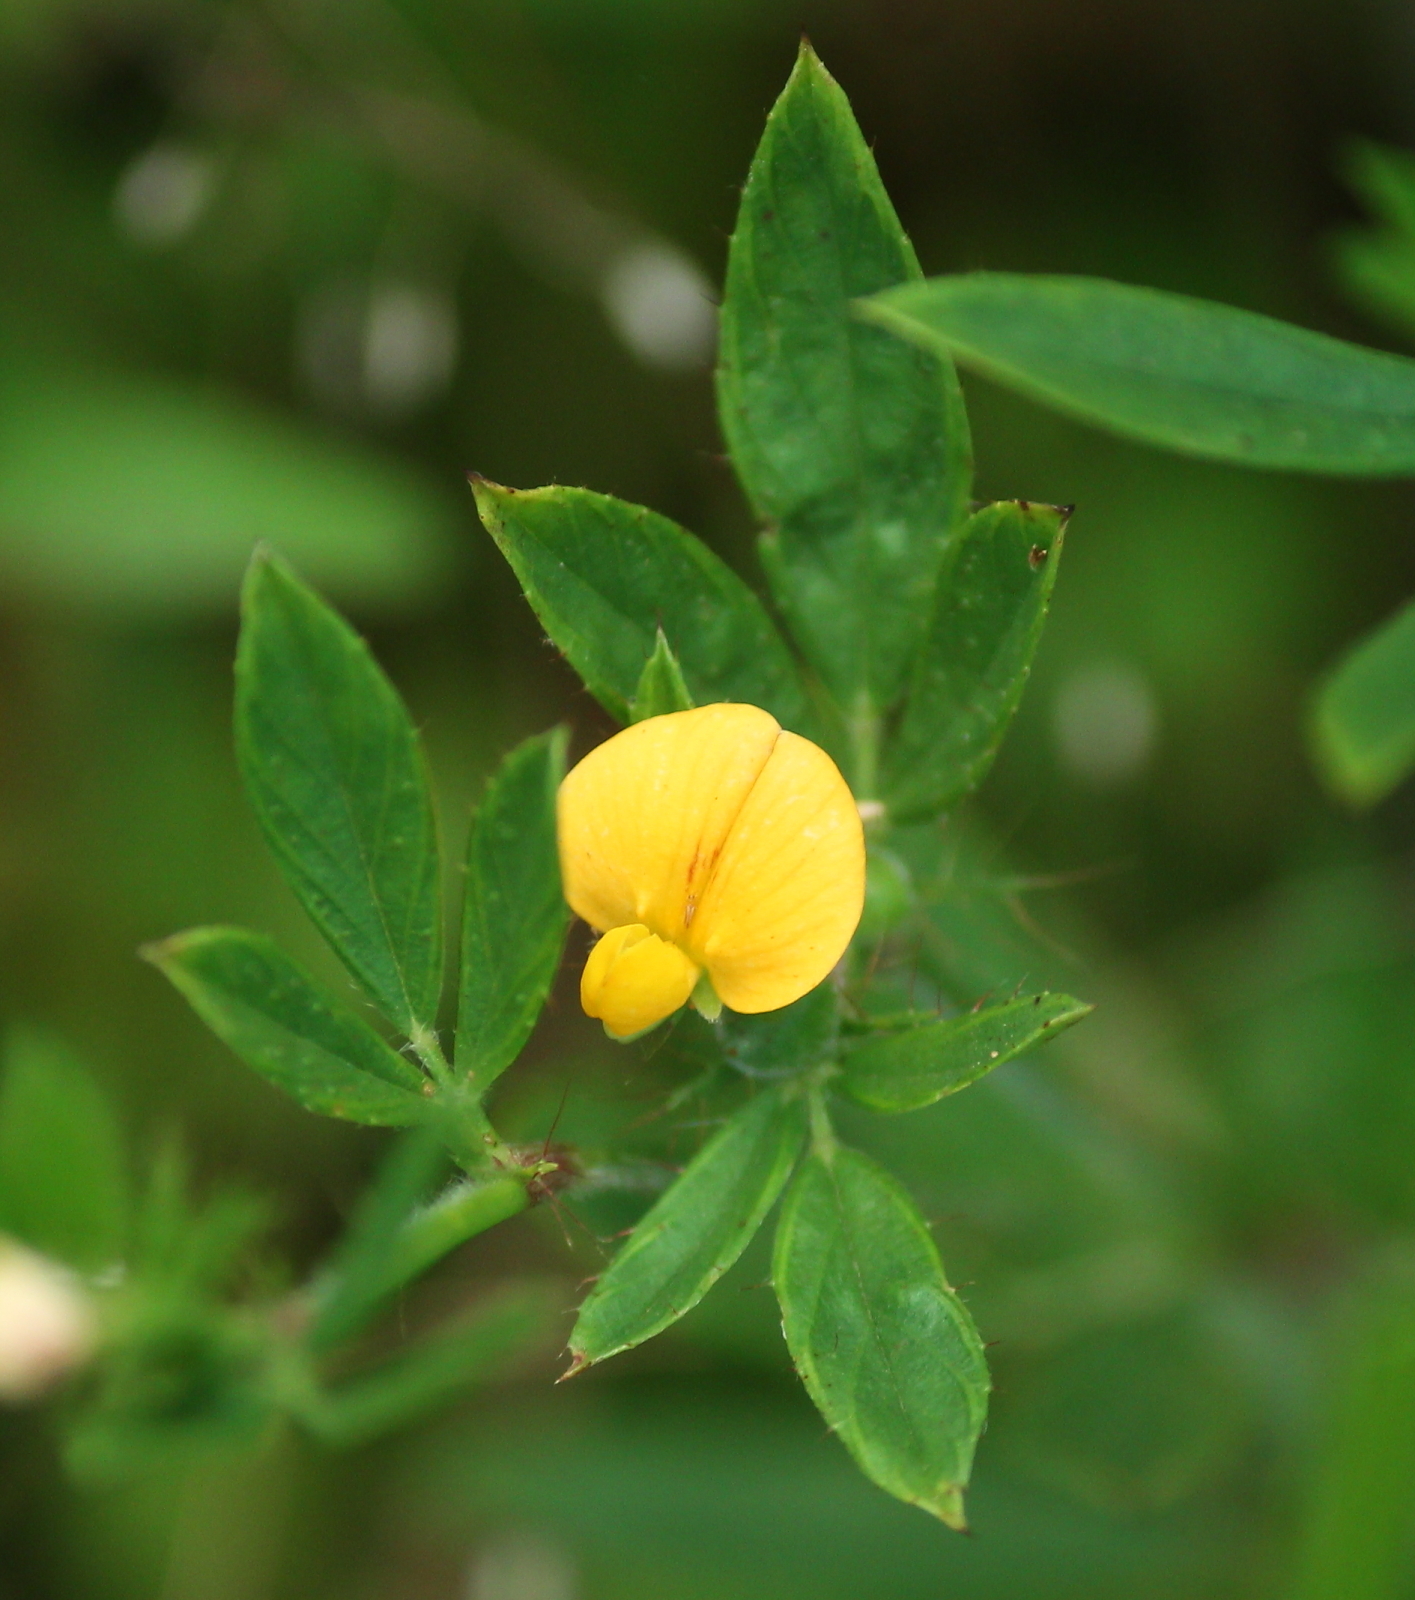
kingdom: Plantae
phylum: Tracheophyta
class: Magnoliopsida
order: Fabales
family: Fabaceae
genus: Stylosanthes
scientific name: Stylosanthes biflora
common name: Two-flower pencil-flower
